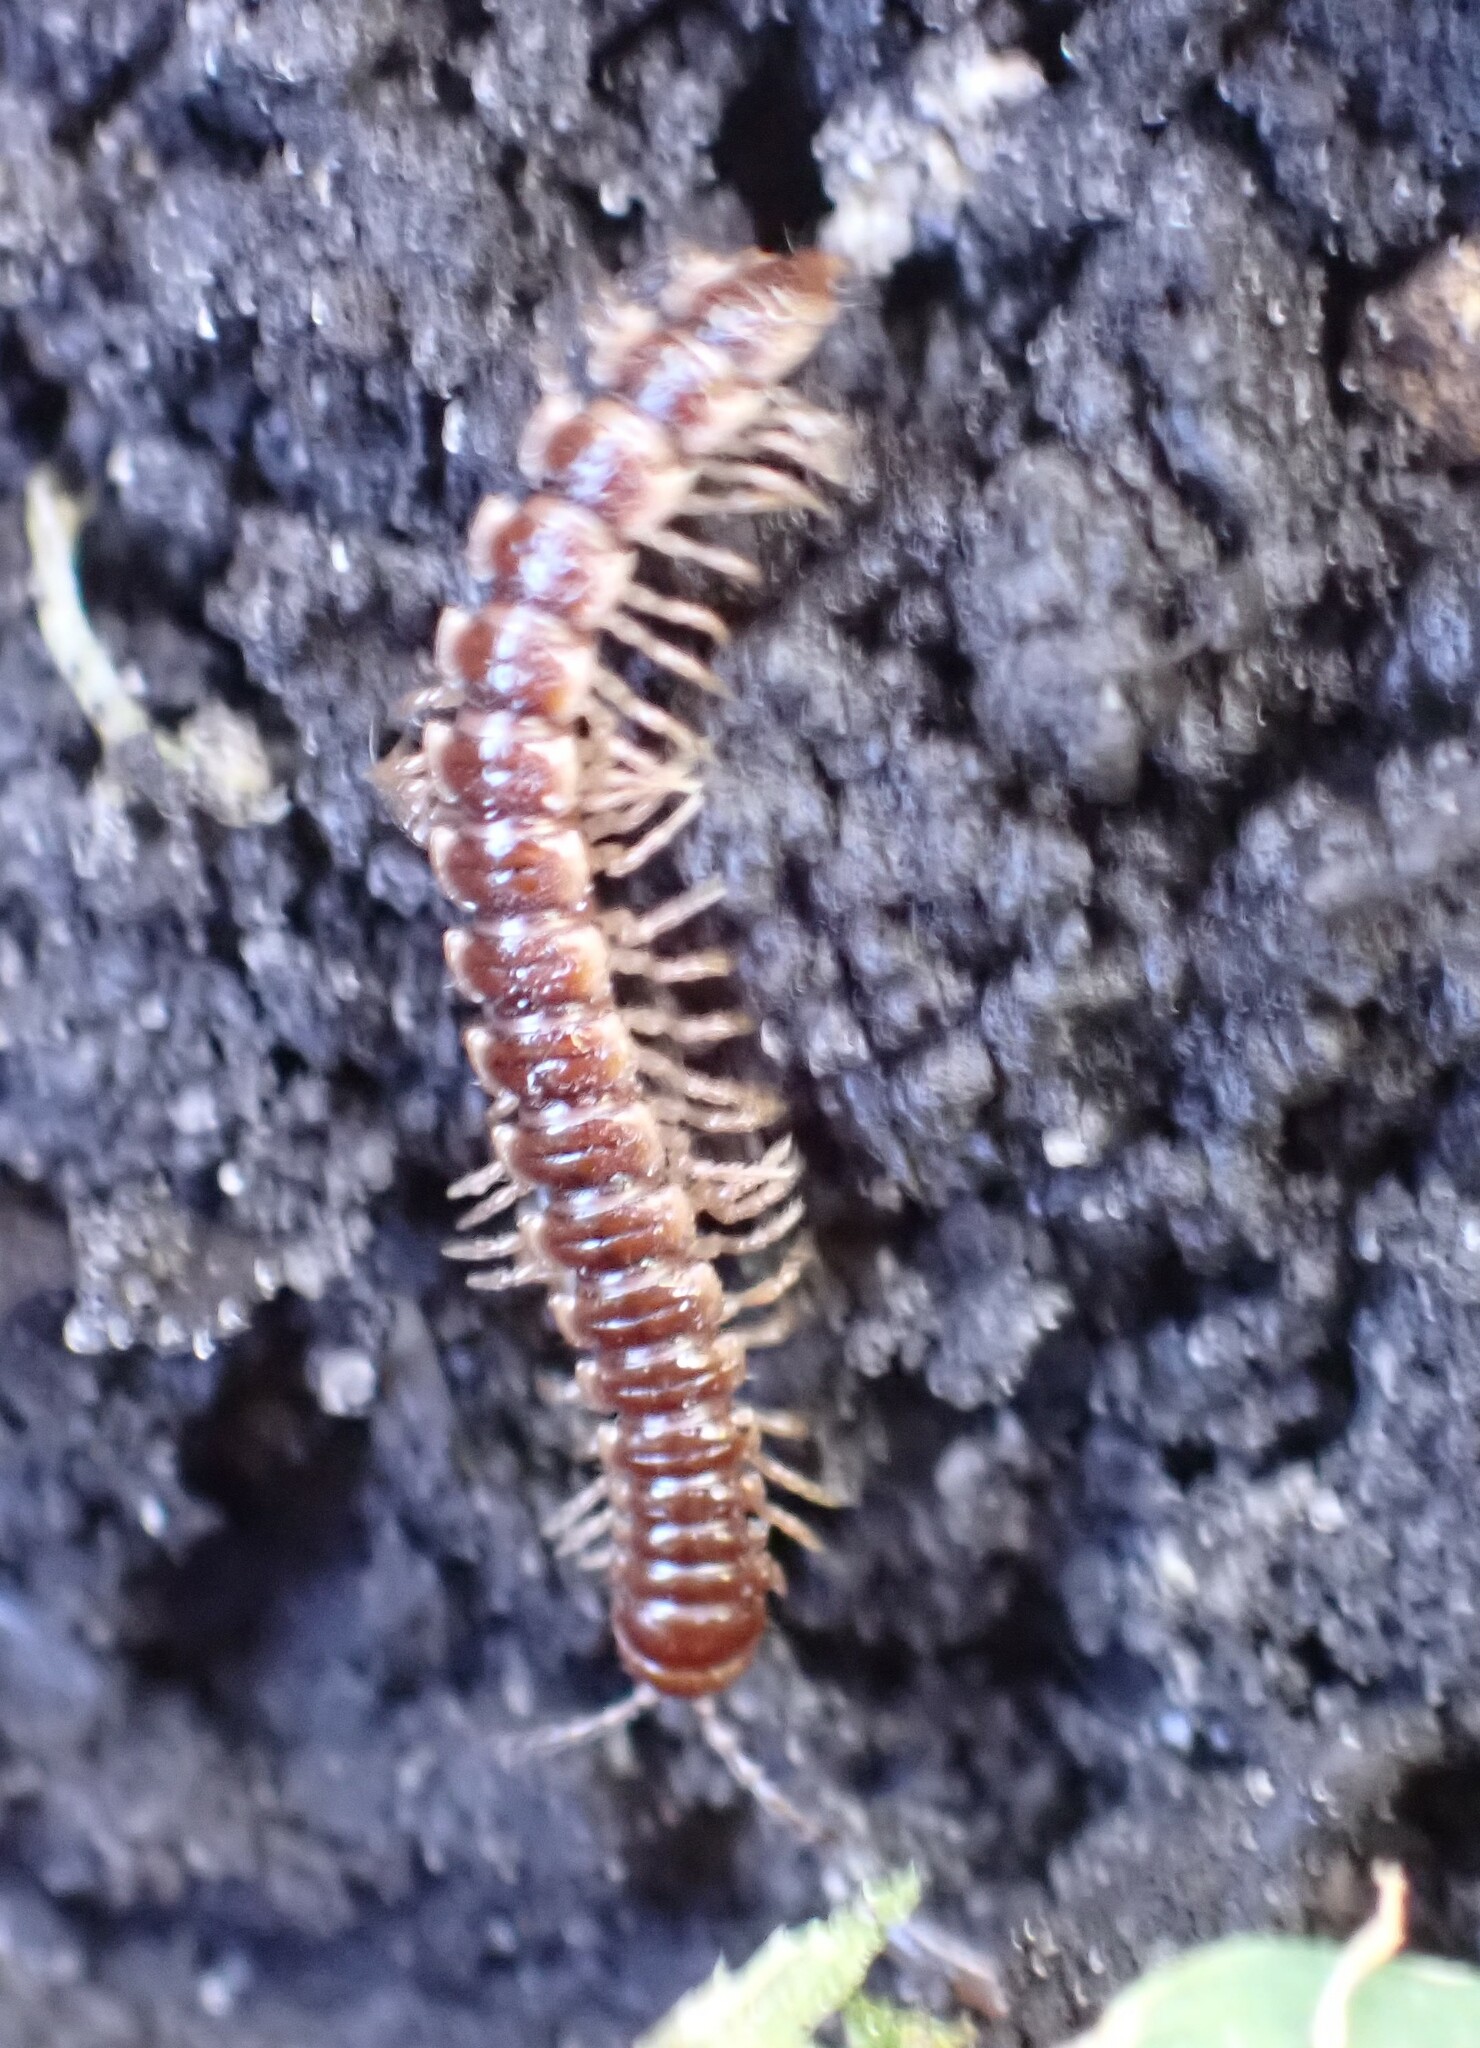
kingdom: Animalia
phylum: Arthropoda
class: Diplopoda
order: Polydesmida
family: Paradoxosomatidae
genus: Oxidus
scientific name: Oxidus gracilis
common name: Greenhouse millipede
